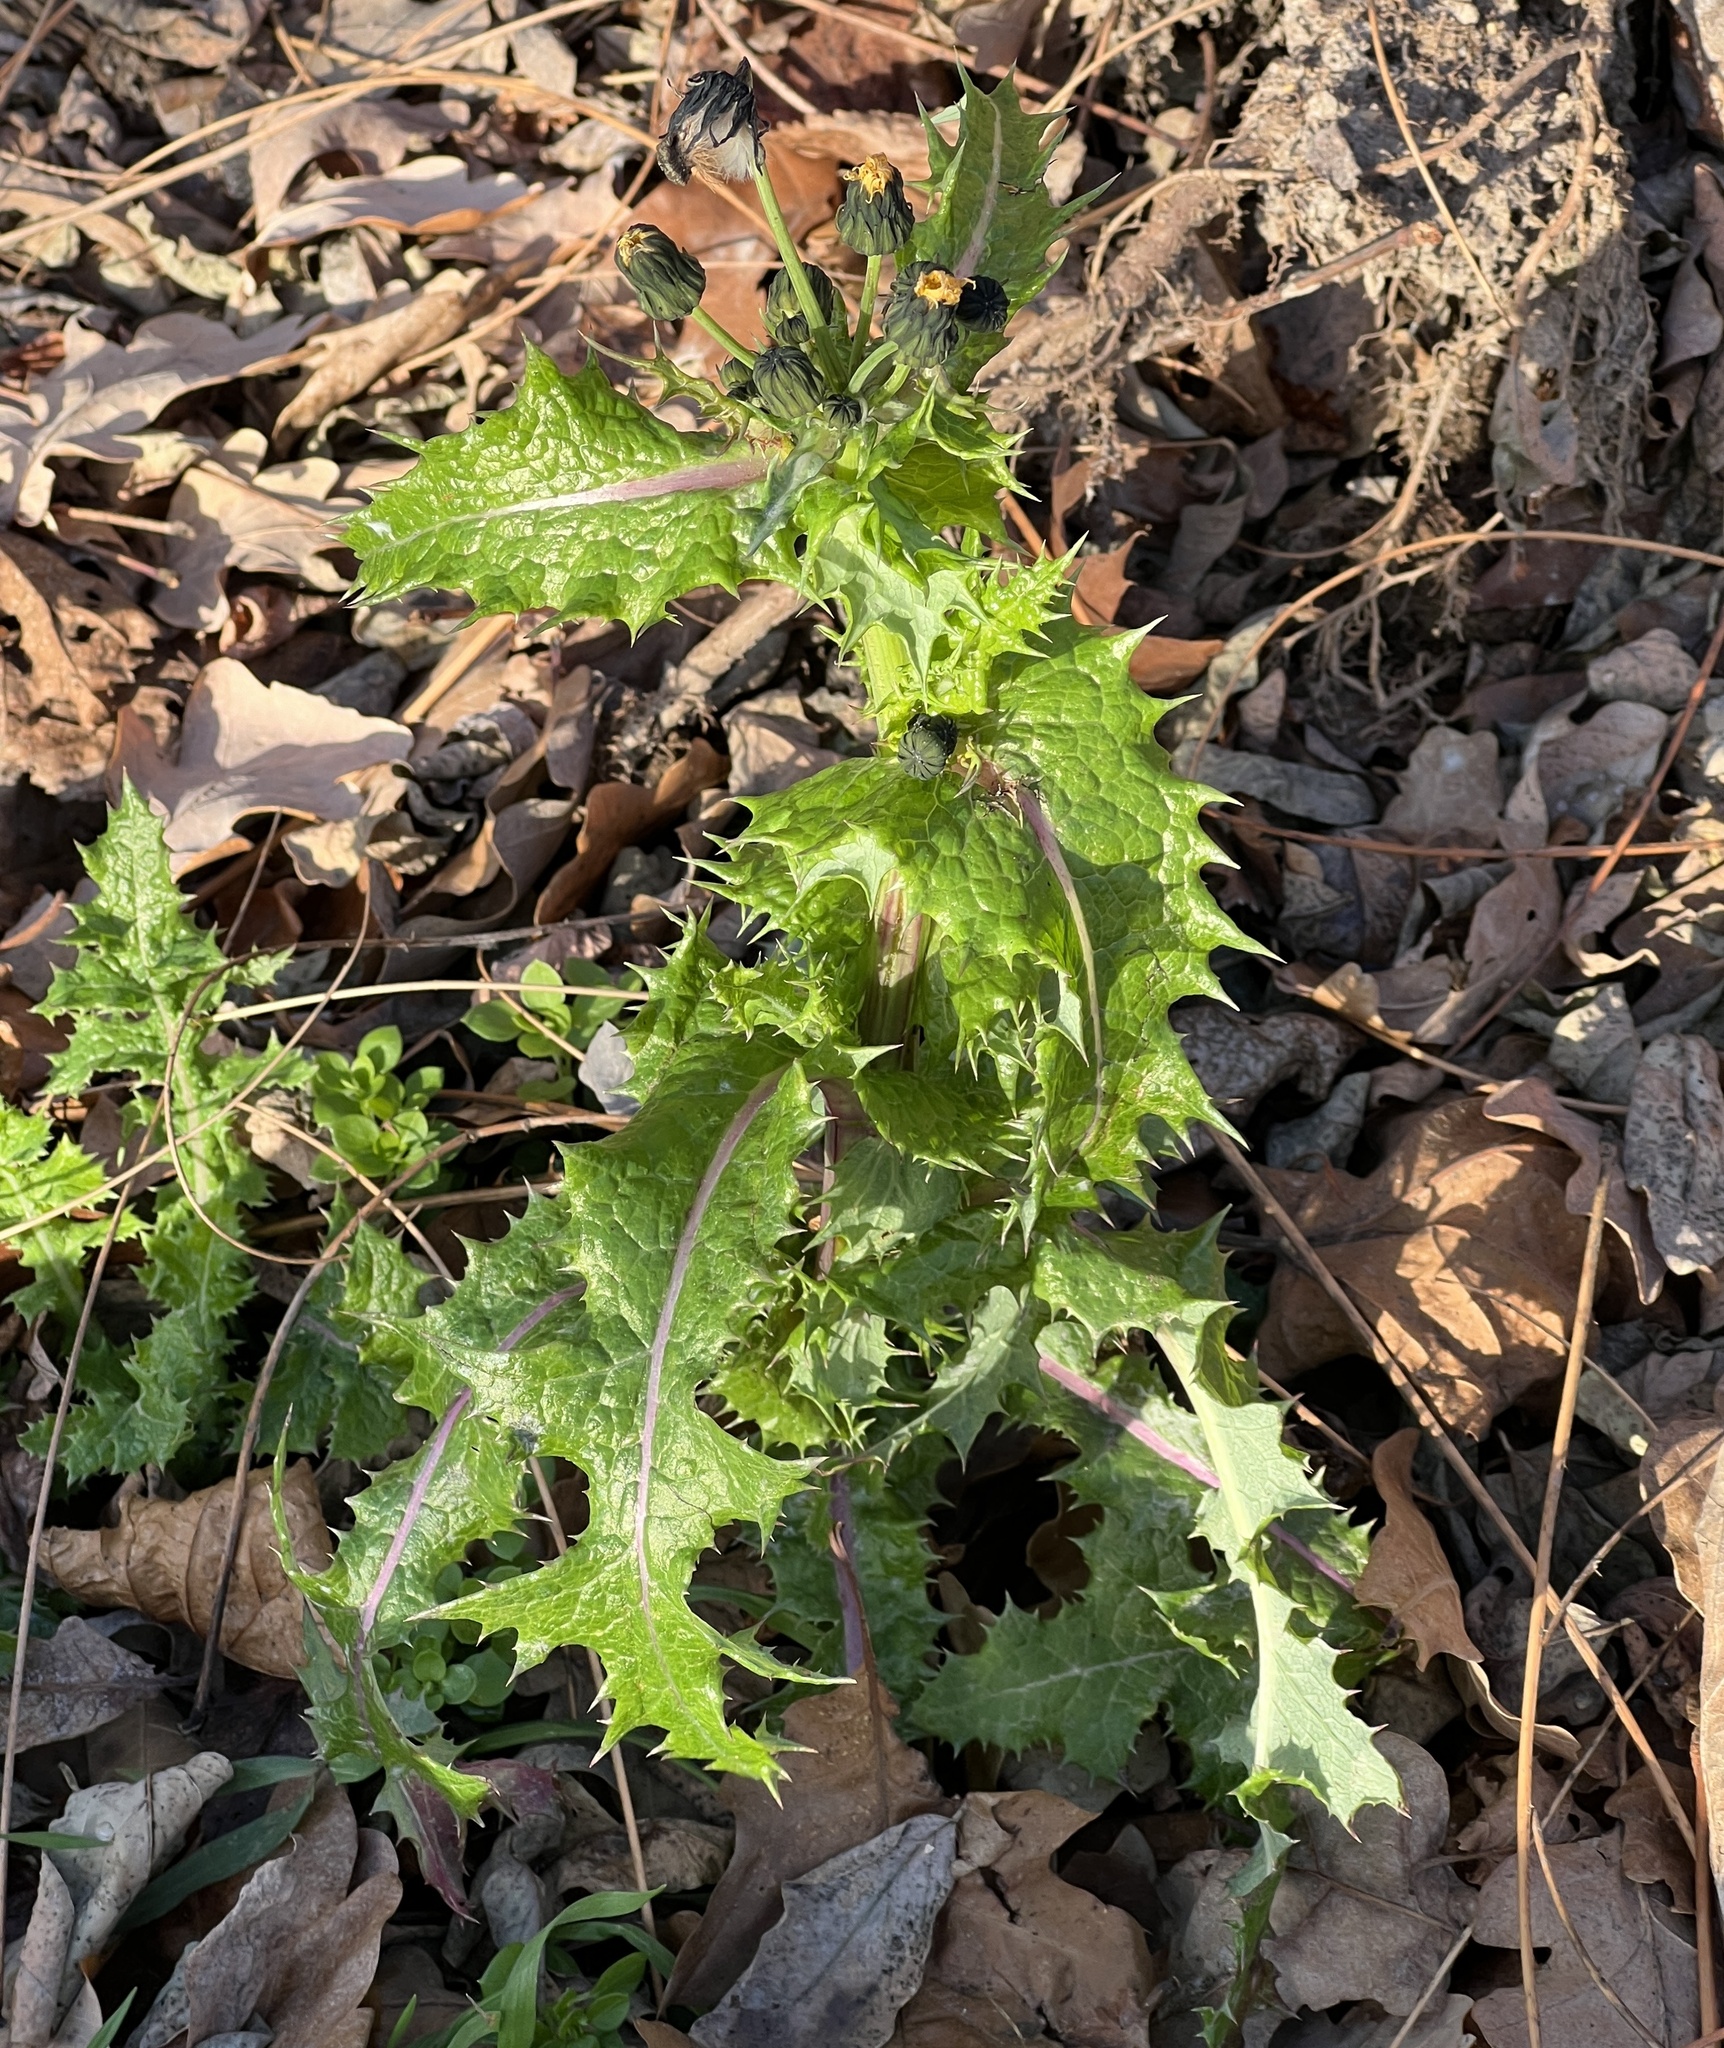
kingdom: Plantae
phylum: Tracheophyta
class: Magnoliopsida
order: Asterales
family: Asteraceae
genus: Sonchus
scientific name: Sonchus asper
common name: Prickly sow-thistle
